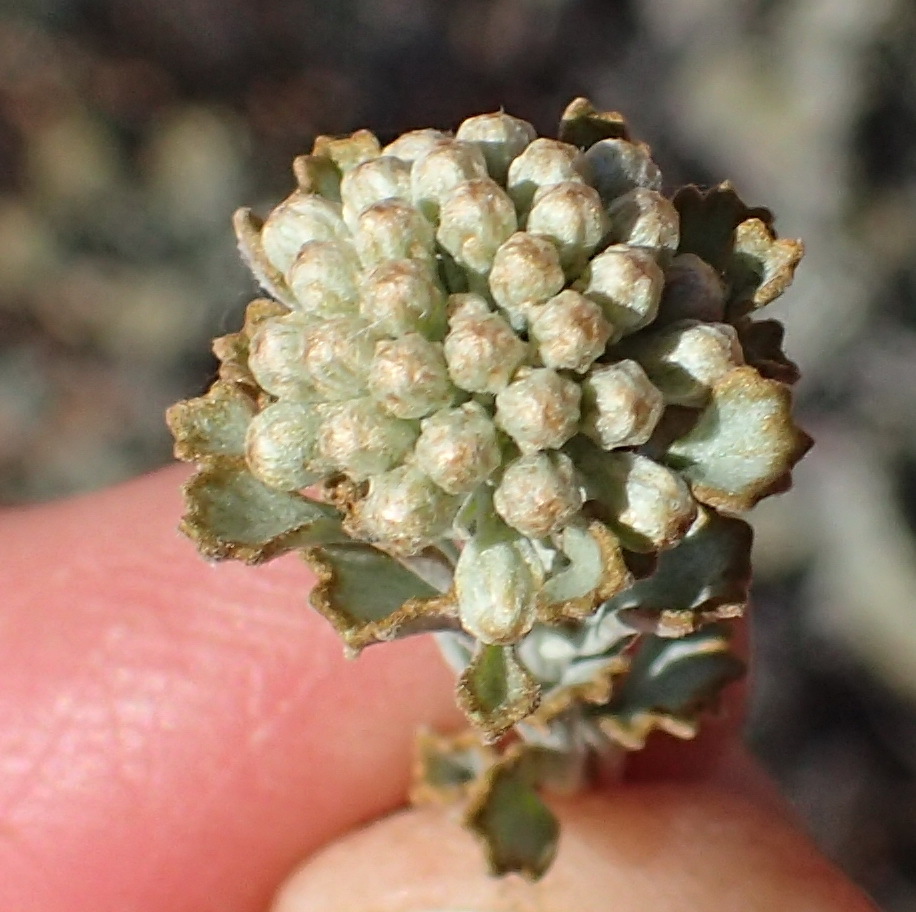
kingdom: Plantae
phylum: Tracheophyta
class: Magnoliopsida
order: Asterales
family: Asteraceae
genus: Pentzia
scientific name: Pentzia dentata
